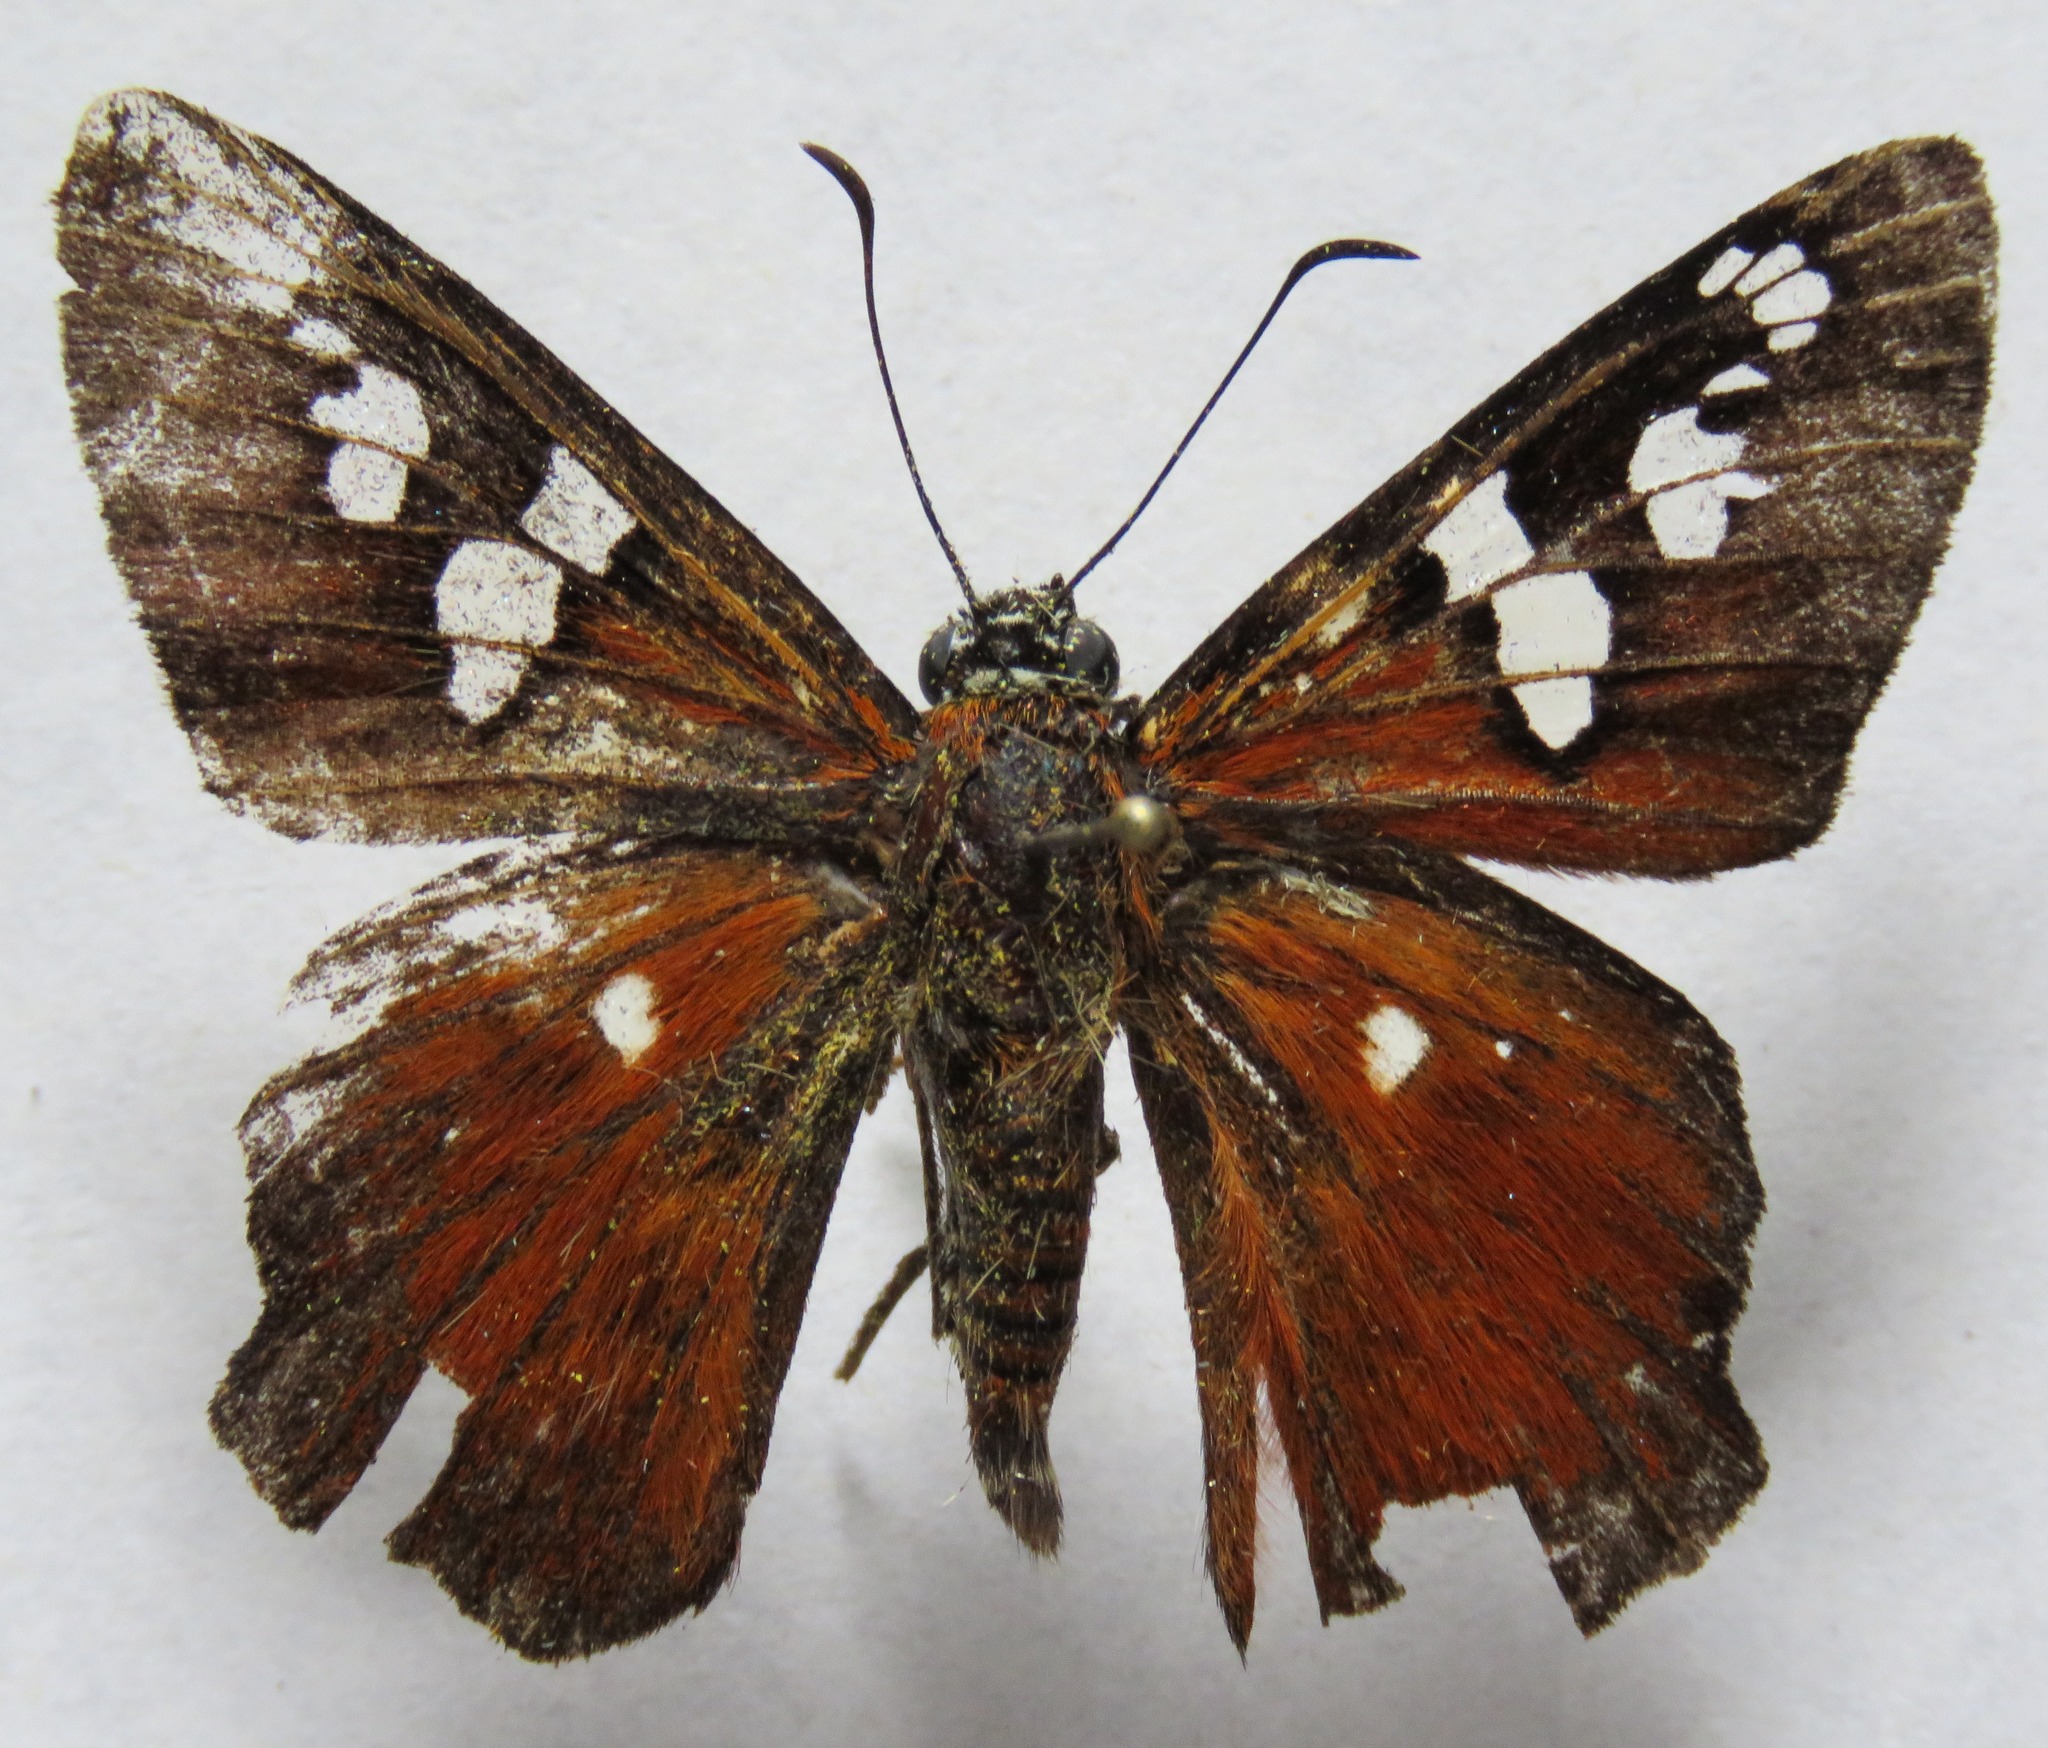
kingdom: Animalia
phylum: Arthropoda
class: Insecta
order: Lepidoptera
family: Hesperiidae
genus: Myscelus
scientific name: Myscelus belti
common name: Belt's myscelus
